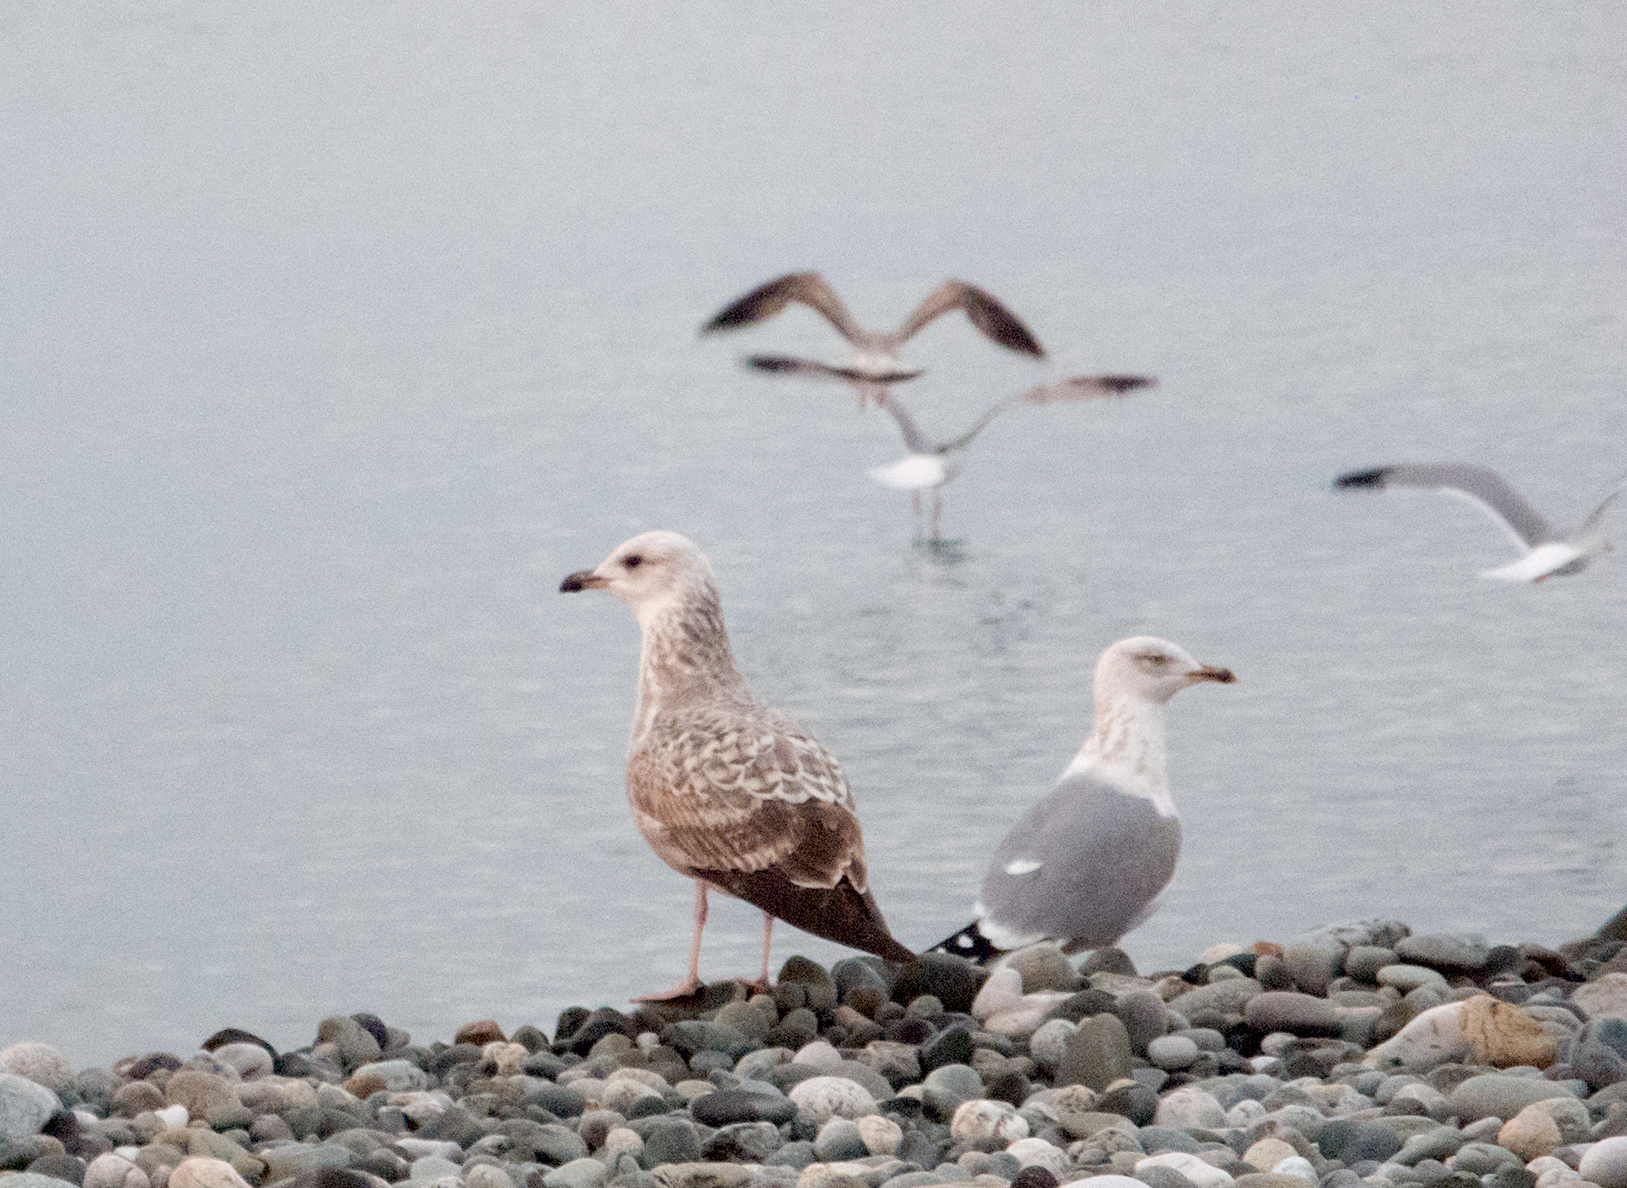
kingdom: Animalia
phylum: Chordata
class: Aves
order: Charadriiformes
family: Laridae
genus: Larus
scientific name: Larus michahellis
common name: Yellow-legged gull
